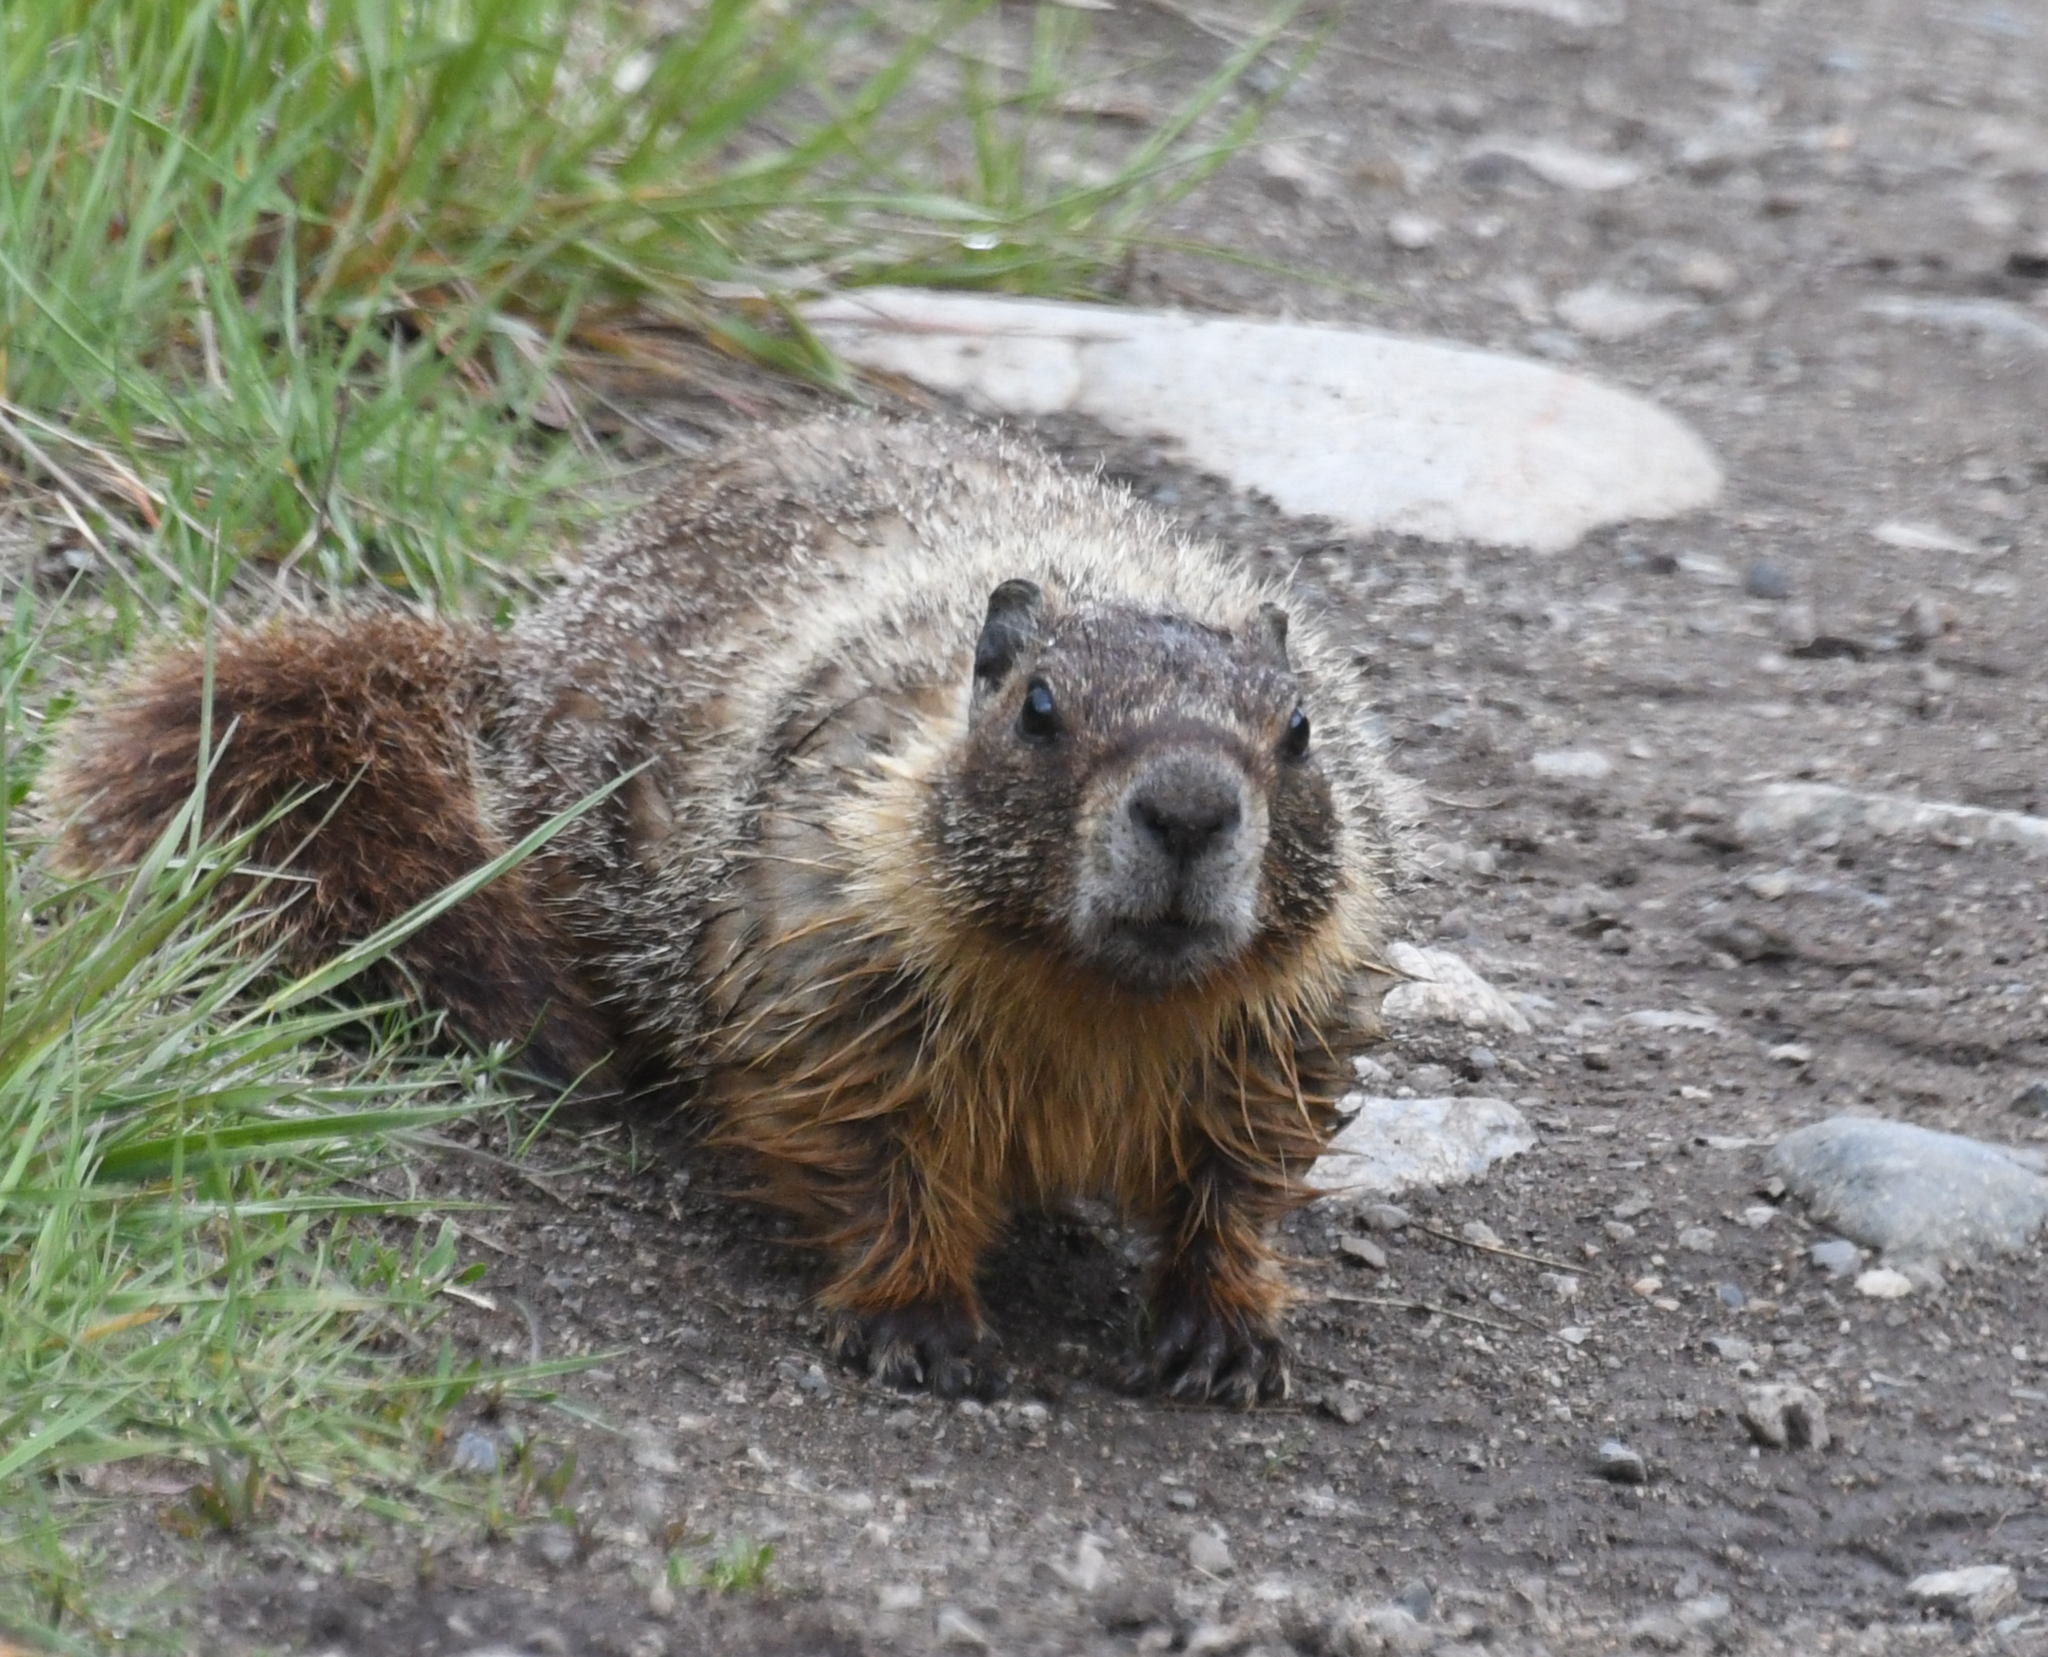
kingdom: Animalia
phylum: Chordata
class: Mammalia
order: Rodentia
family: Sciuridae
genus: Marmota
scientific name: Marmota flaviventris
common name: Yellow-bellied marmot
